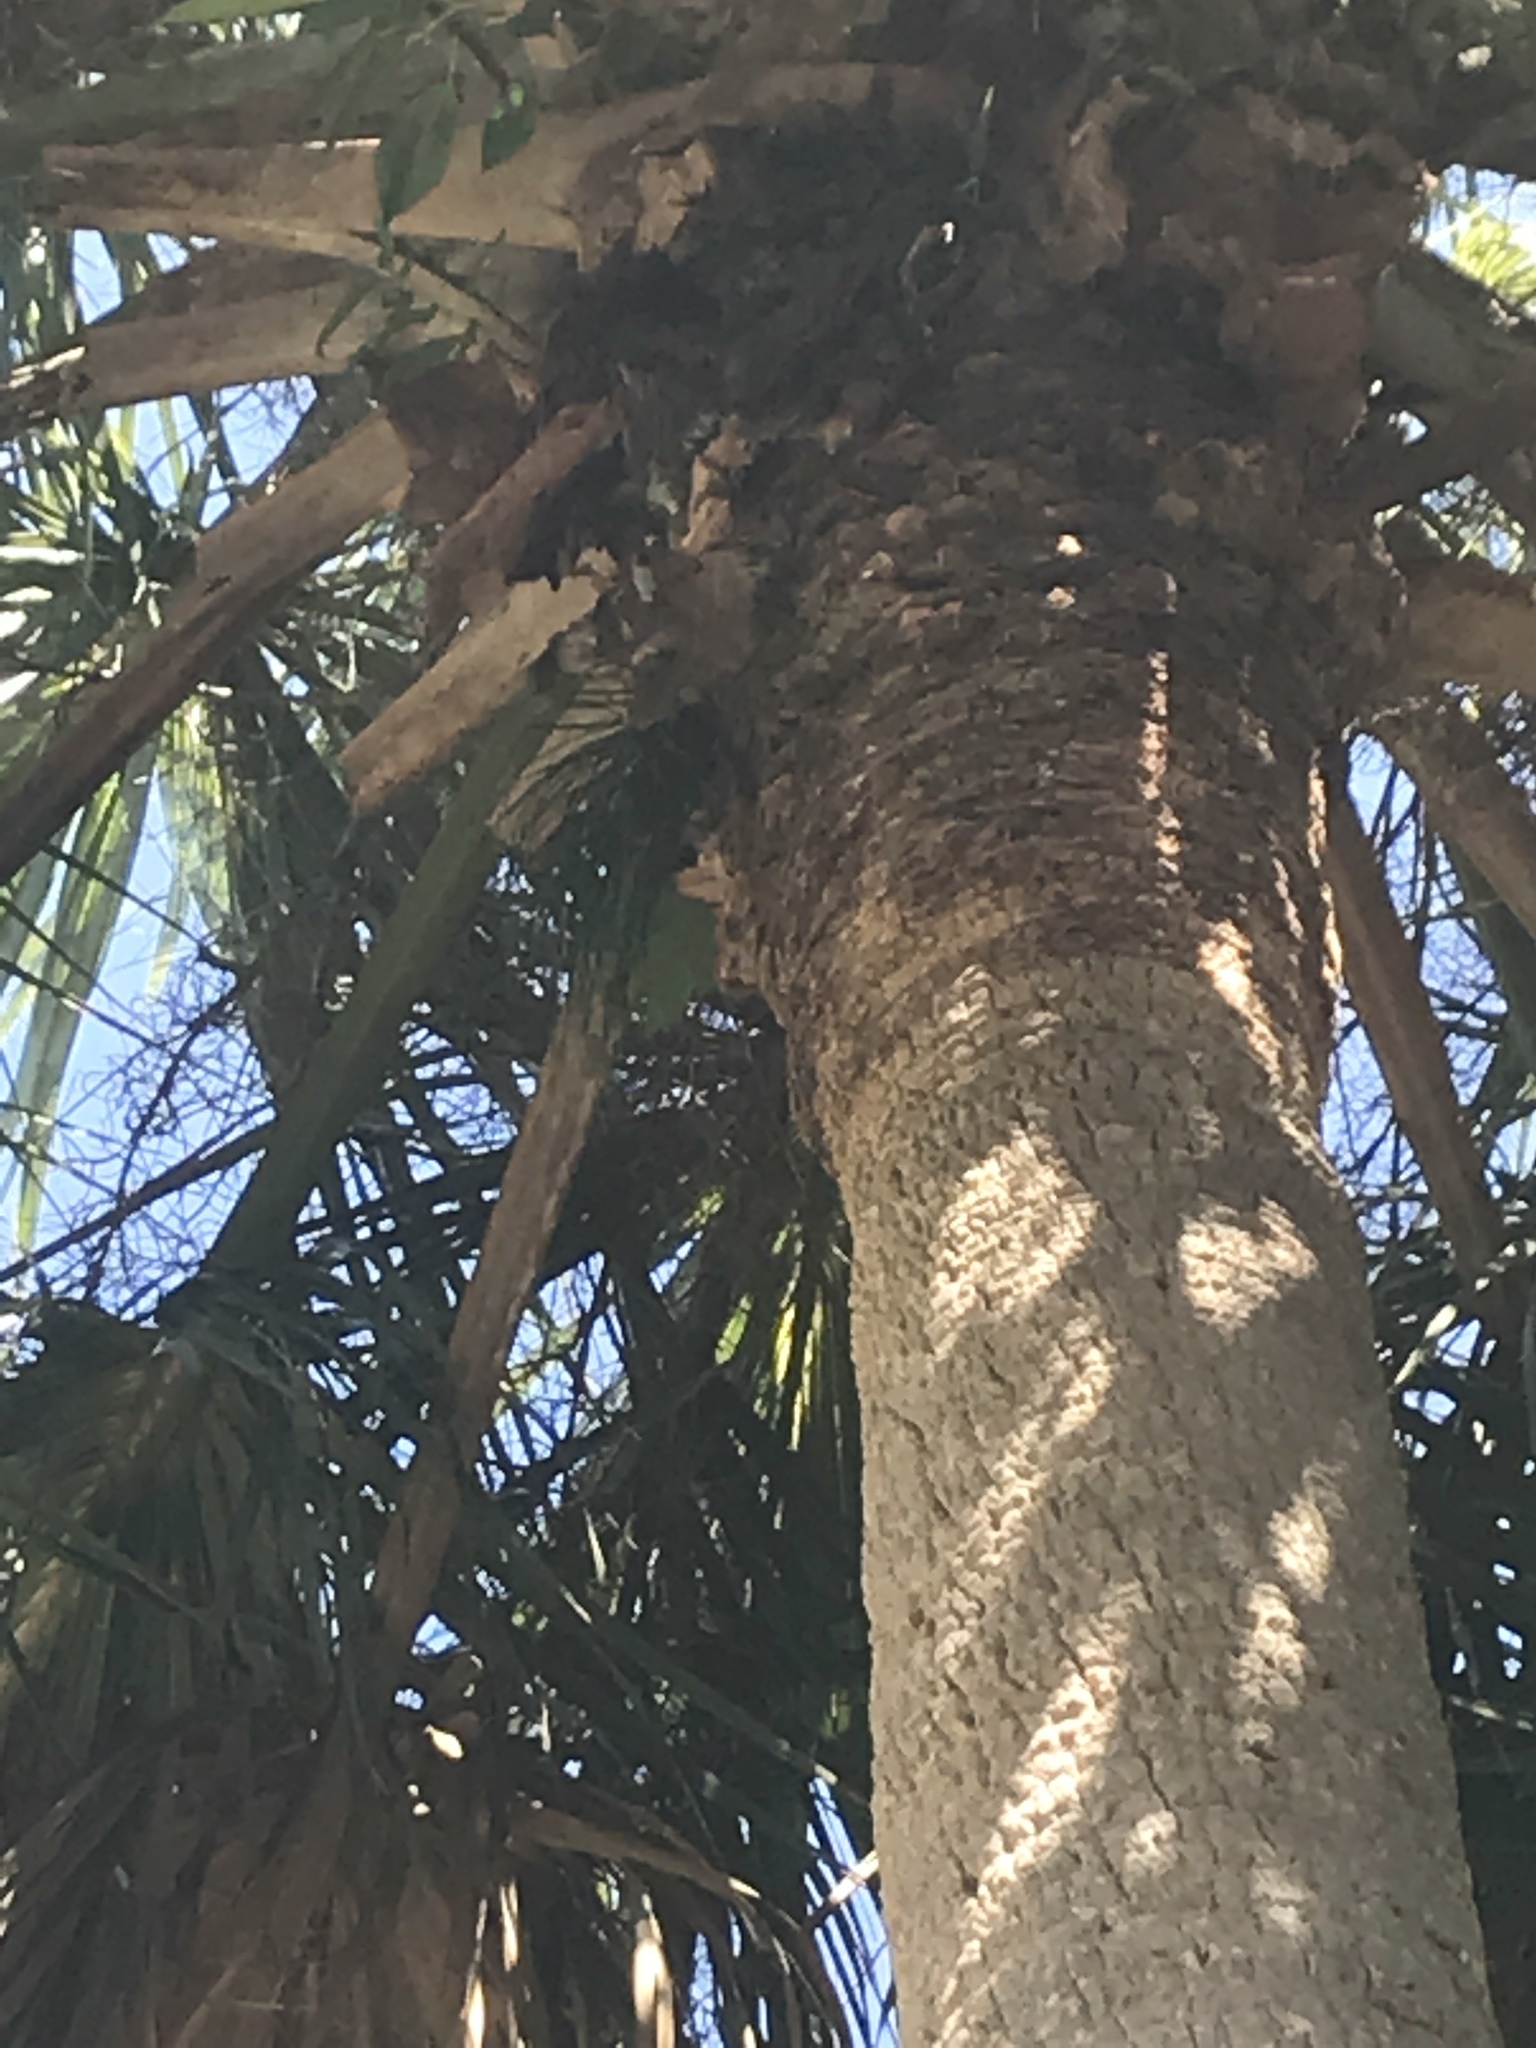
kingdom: Plantae
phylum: Tracheophyta
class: Polypodiopsida
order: Polypodiales
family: Pteridaceae
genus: Vittaria
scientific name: Vittaria lineata
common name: Shoestring fern
